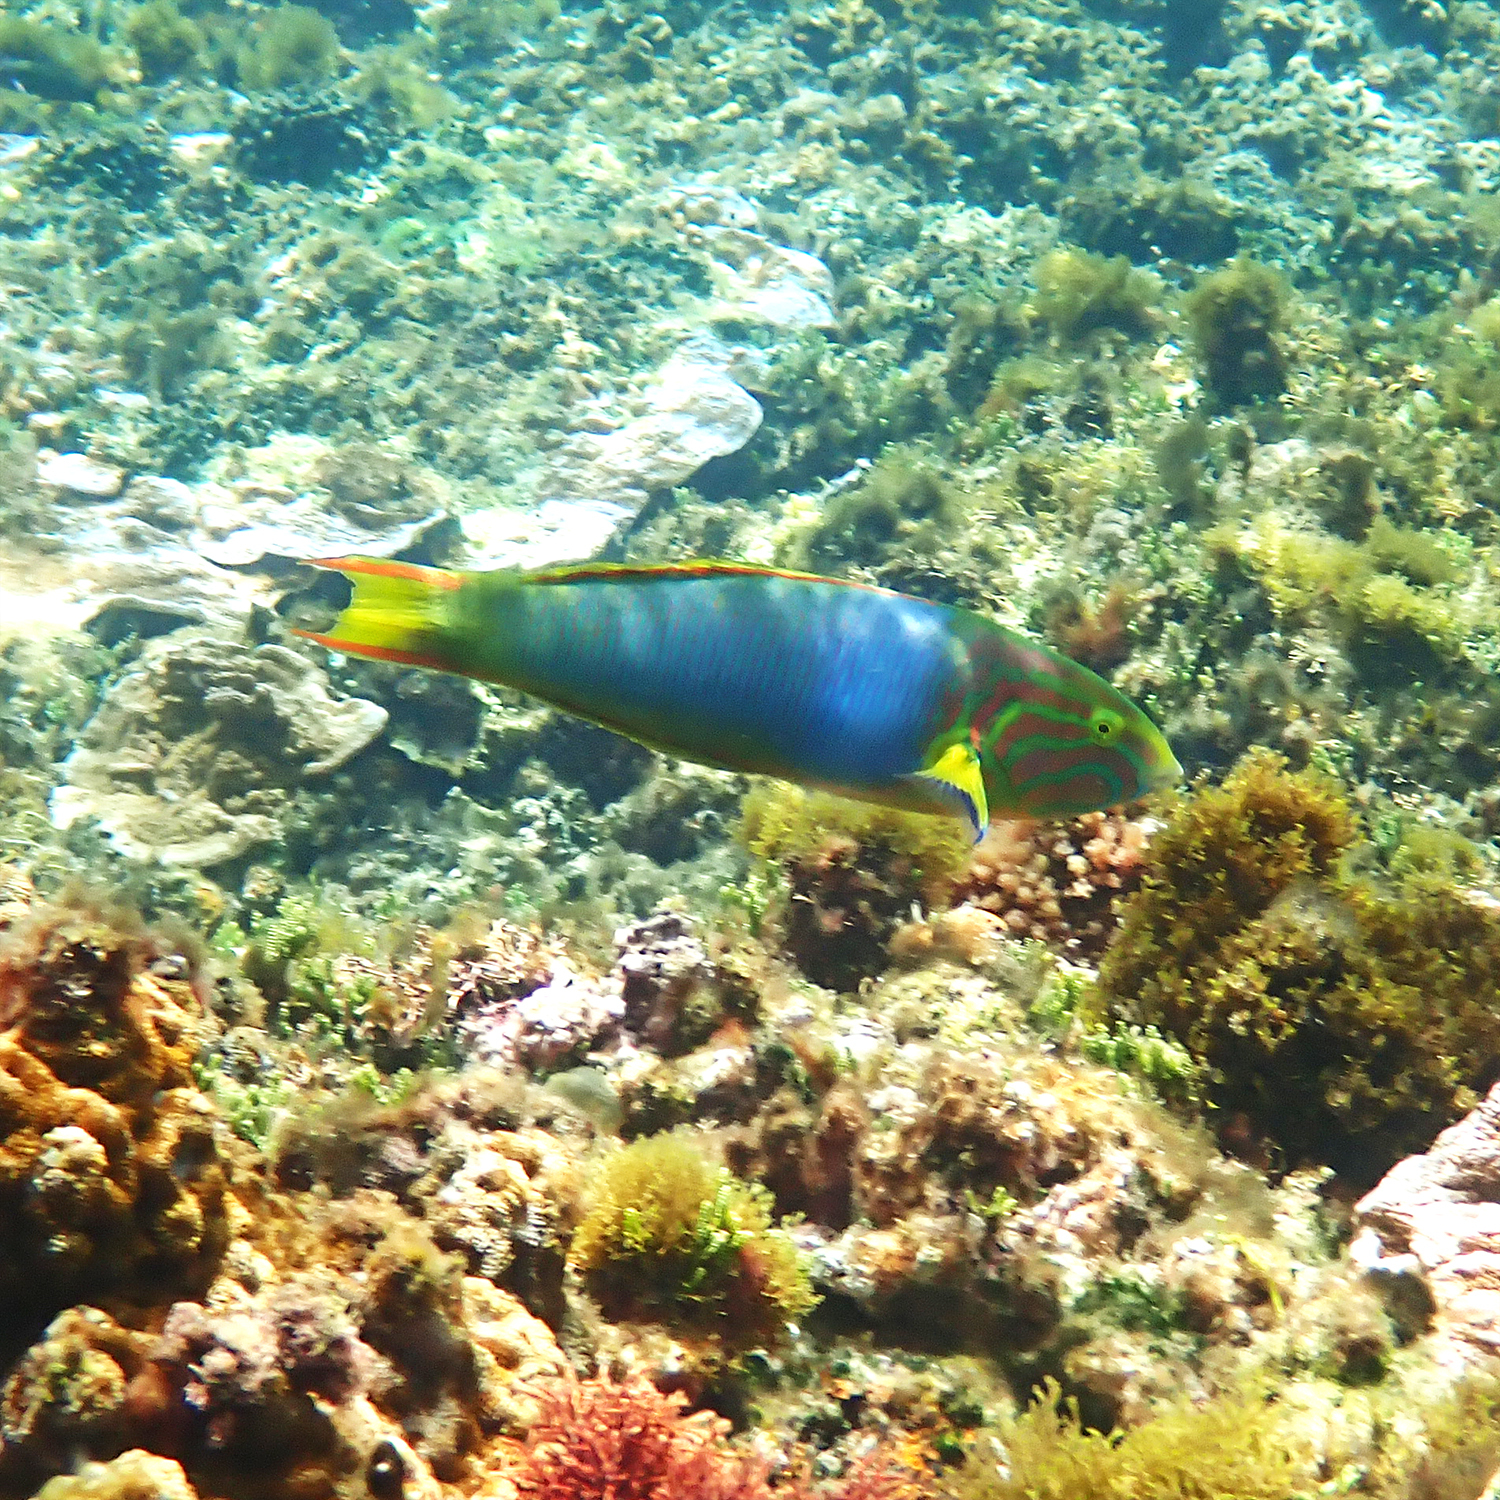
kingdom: Animalia
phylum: Chordata
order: Perciformes
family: Labridae
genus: Thalassoma
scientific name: Thalassoma lutescens
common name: Green moon wrasse
